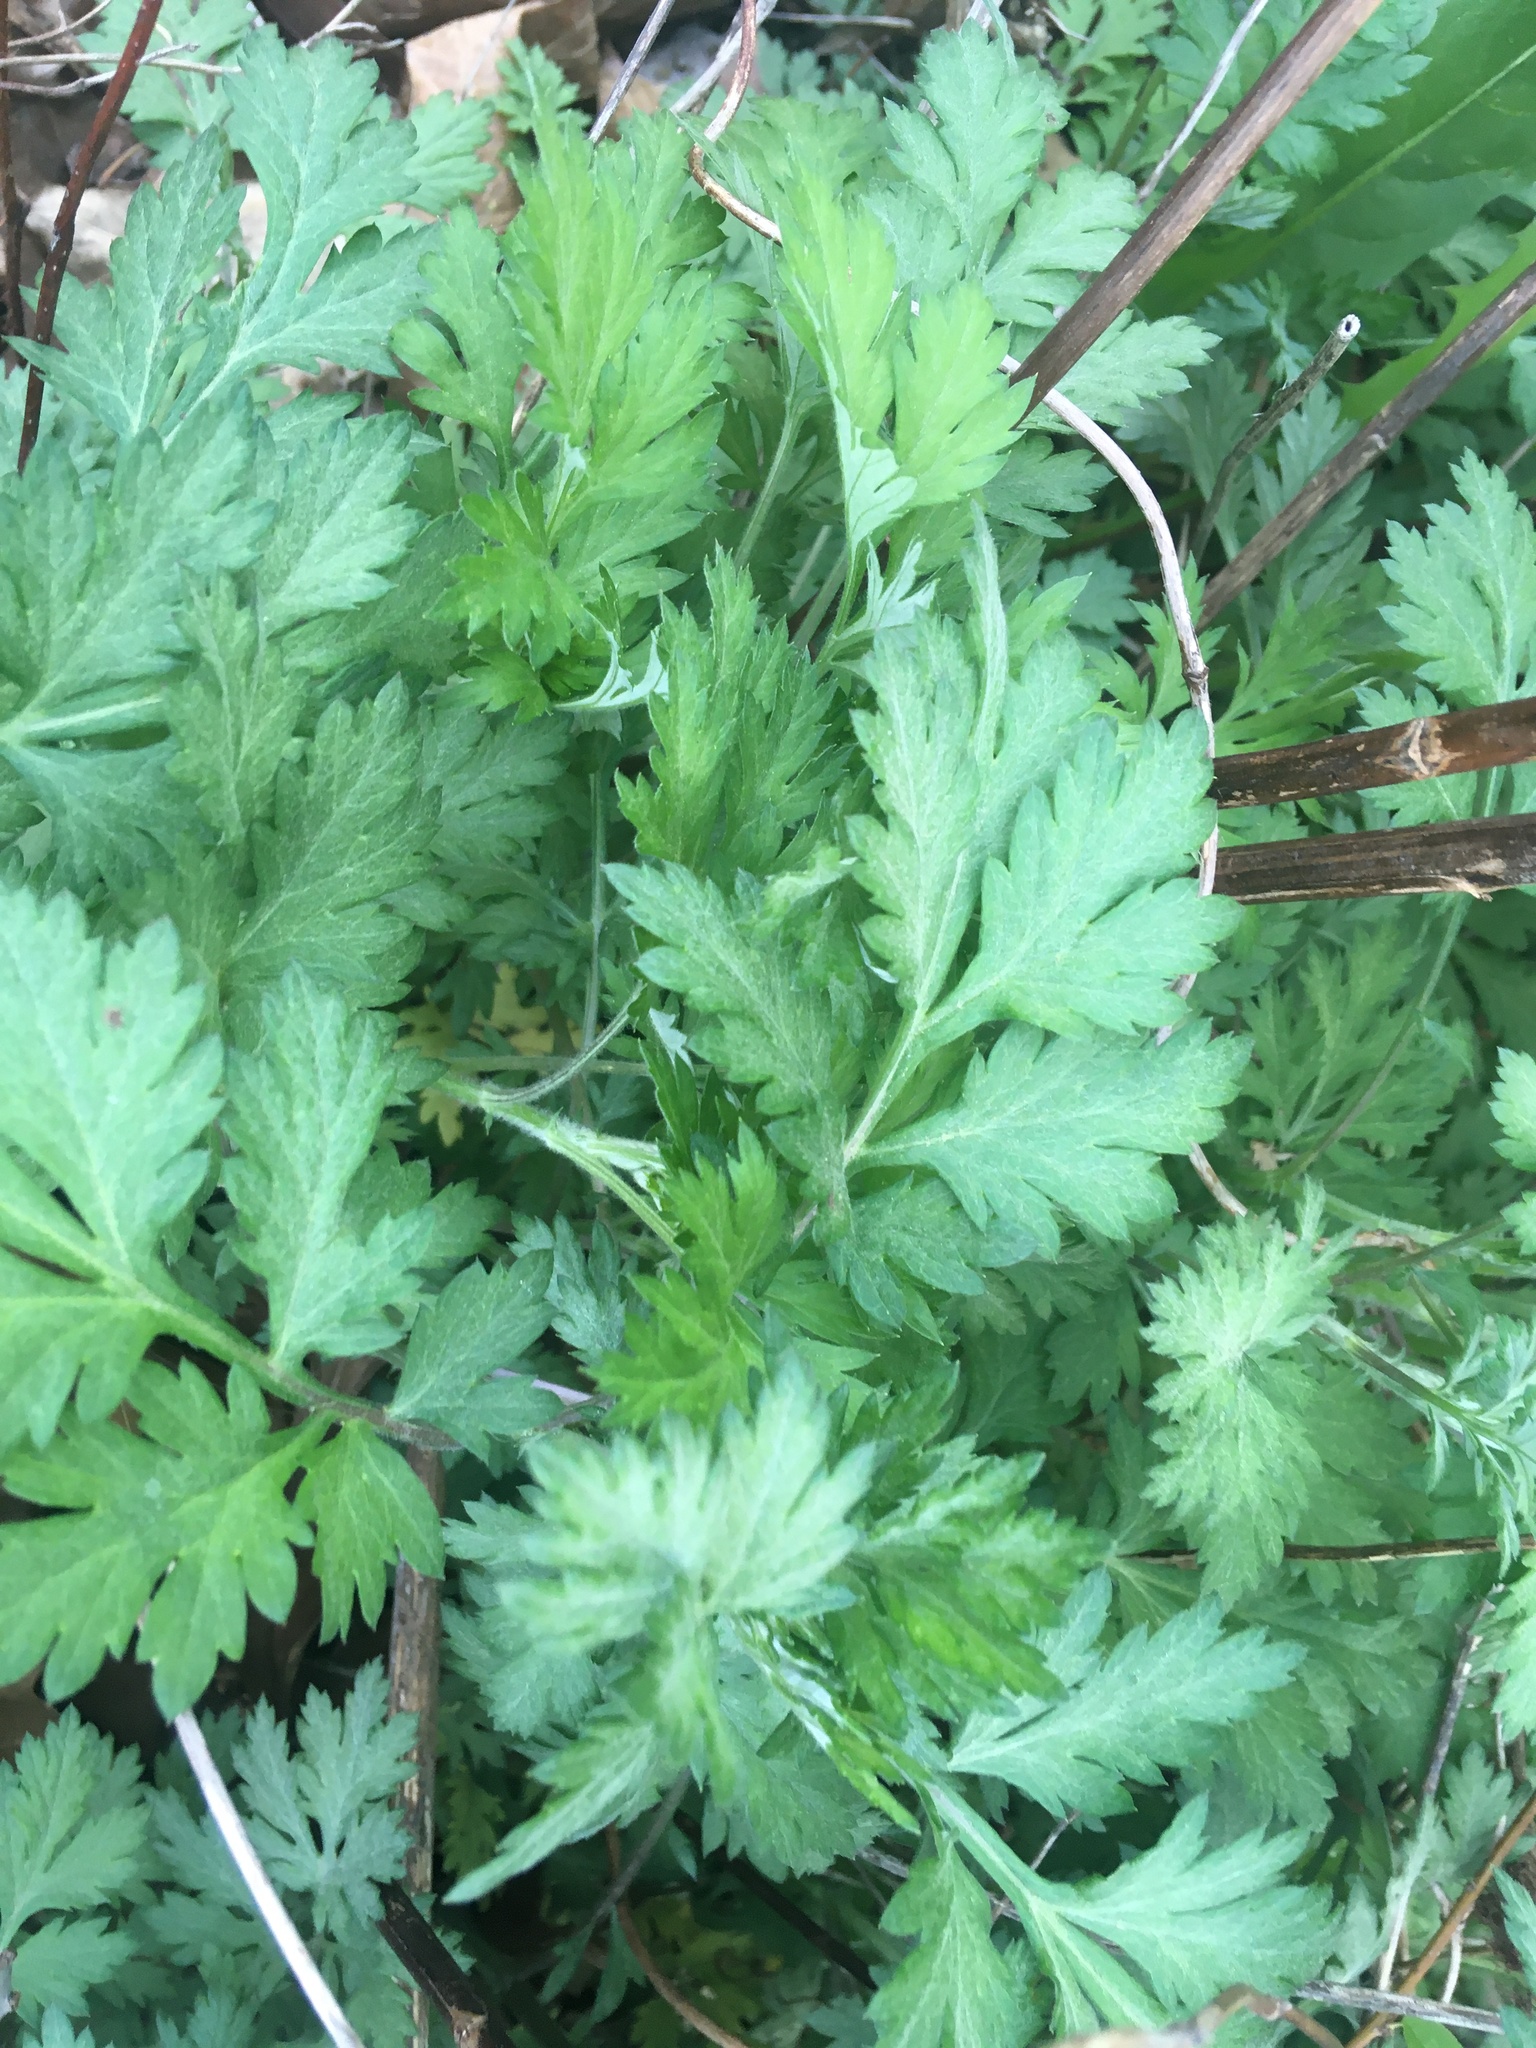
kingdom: Plantae
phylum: Tracheophyta
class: Magnoliopsida
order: Asterales
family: Asteraceae
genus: Artemisia
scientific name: Artemisia vulgaris
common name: Mugwort
